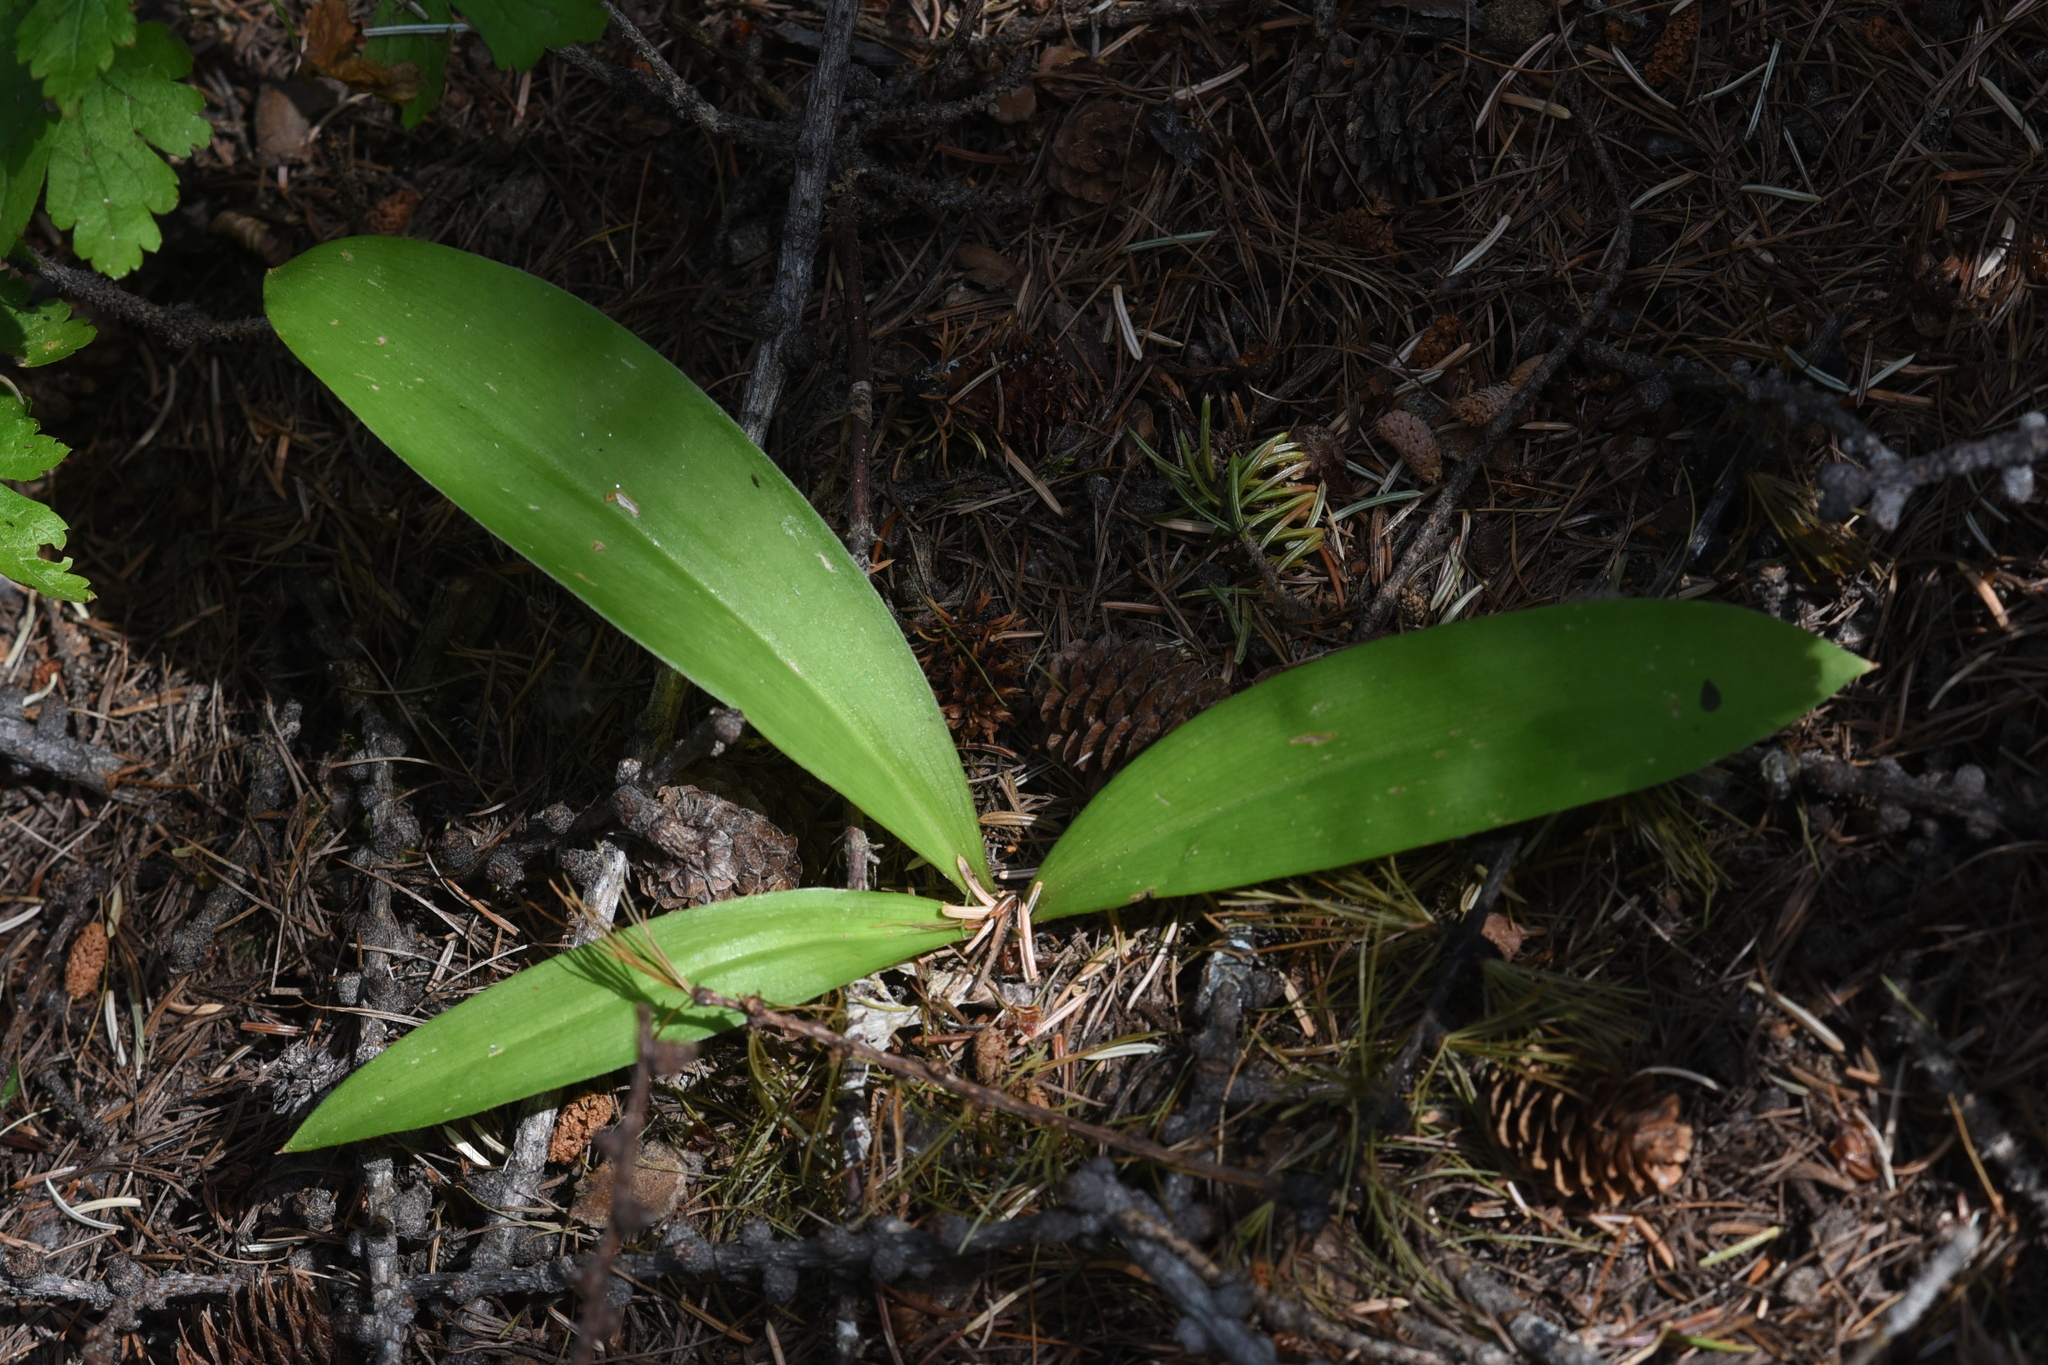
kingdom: Plantae
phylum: Tracheophyta
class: Liliopsida
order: Liliales
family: Liliaceae
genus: Clintonia
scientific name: Clintonia uniflora
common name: Queen's cup
